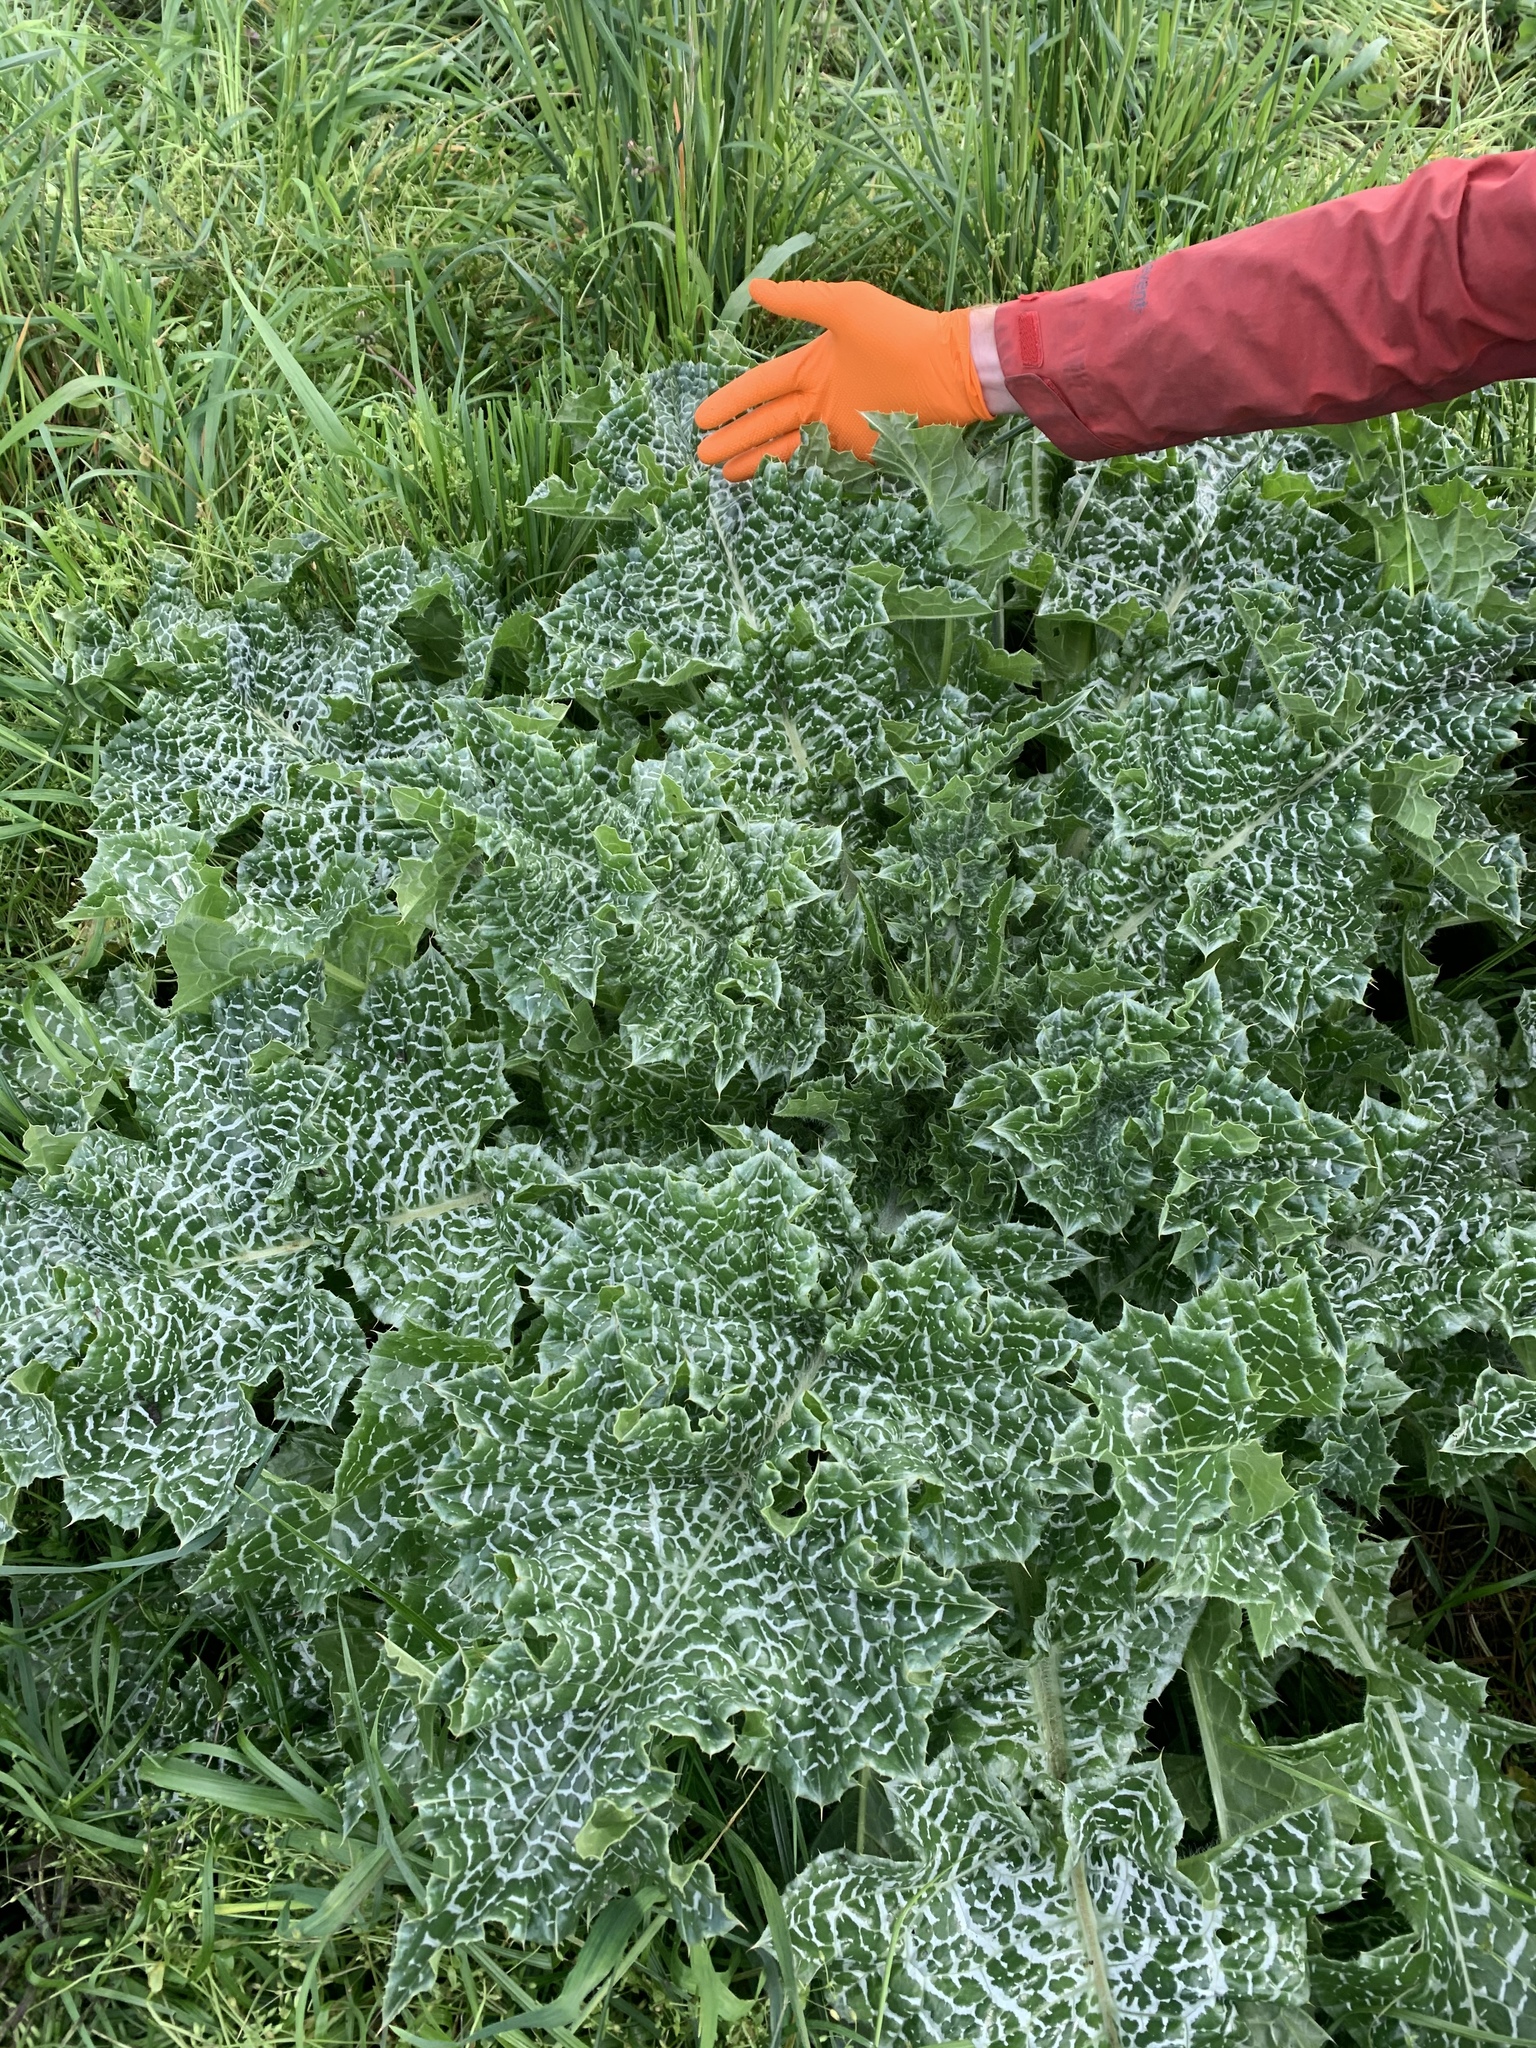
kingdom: Plantae
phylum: Tracheophyta
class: Magnoliopsida
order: Asterales
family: Asteraceae
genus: Silybum
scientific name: Silybum marianum
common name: Milk thistle
